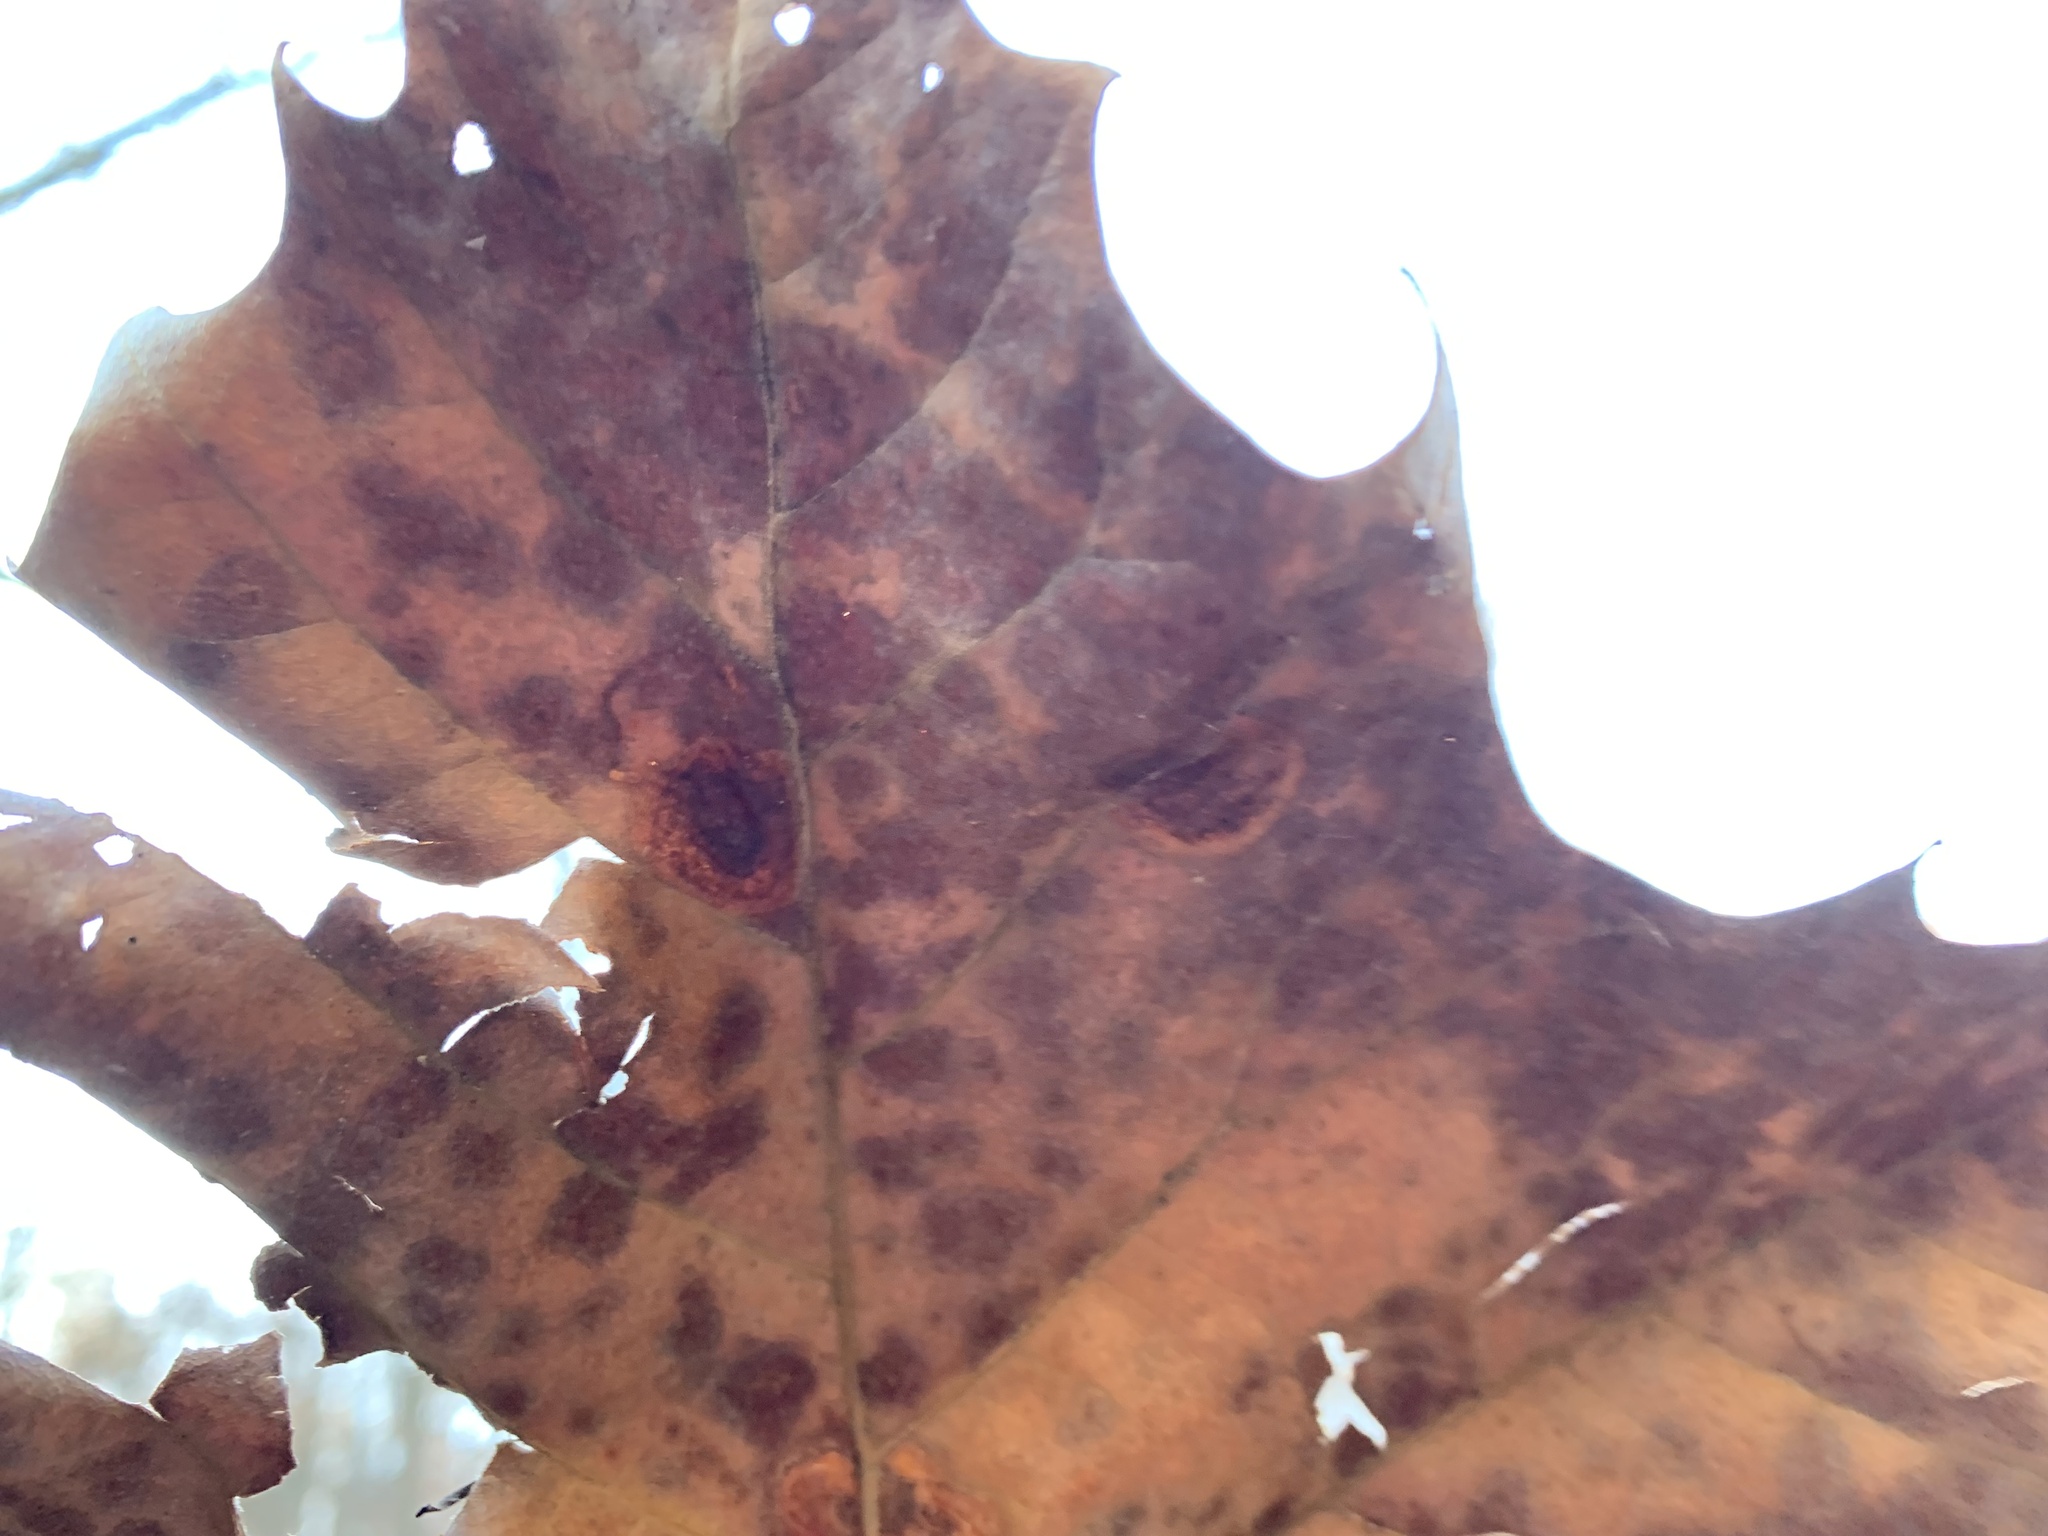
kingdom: Animalia
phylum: Arthropoda
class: Insecta
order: Lepidoptera
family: Nepticulidae
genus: Ectoedemia
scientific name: Ectoedemia platanella
